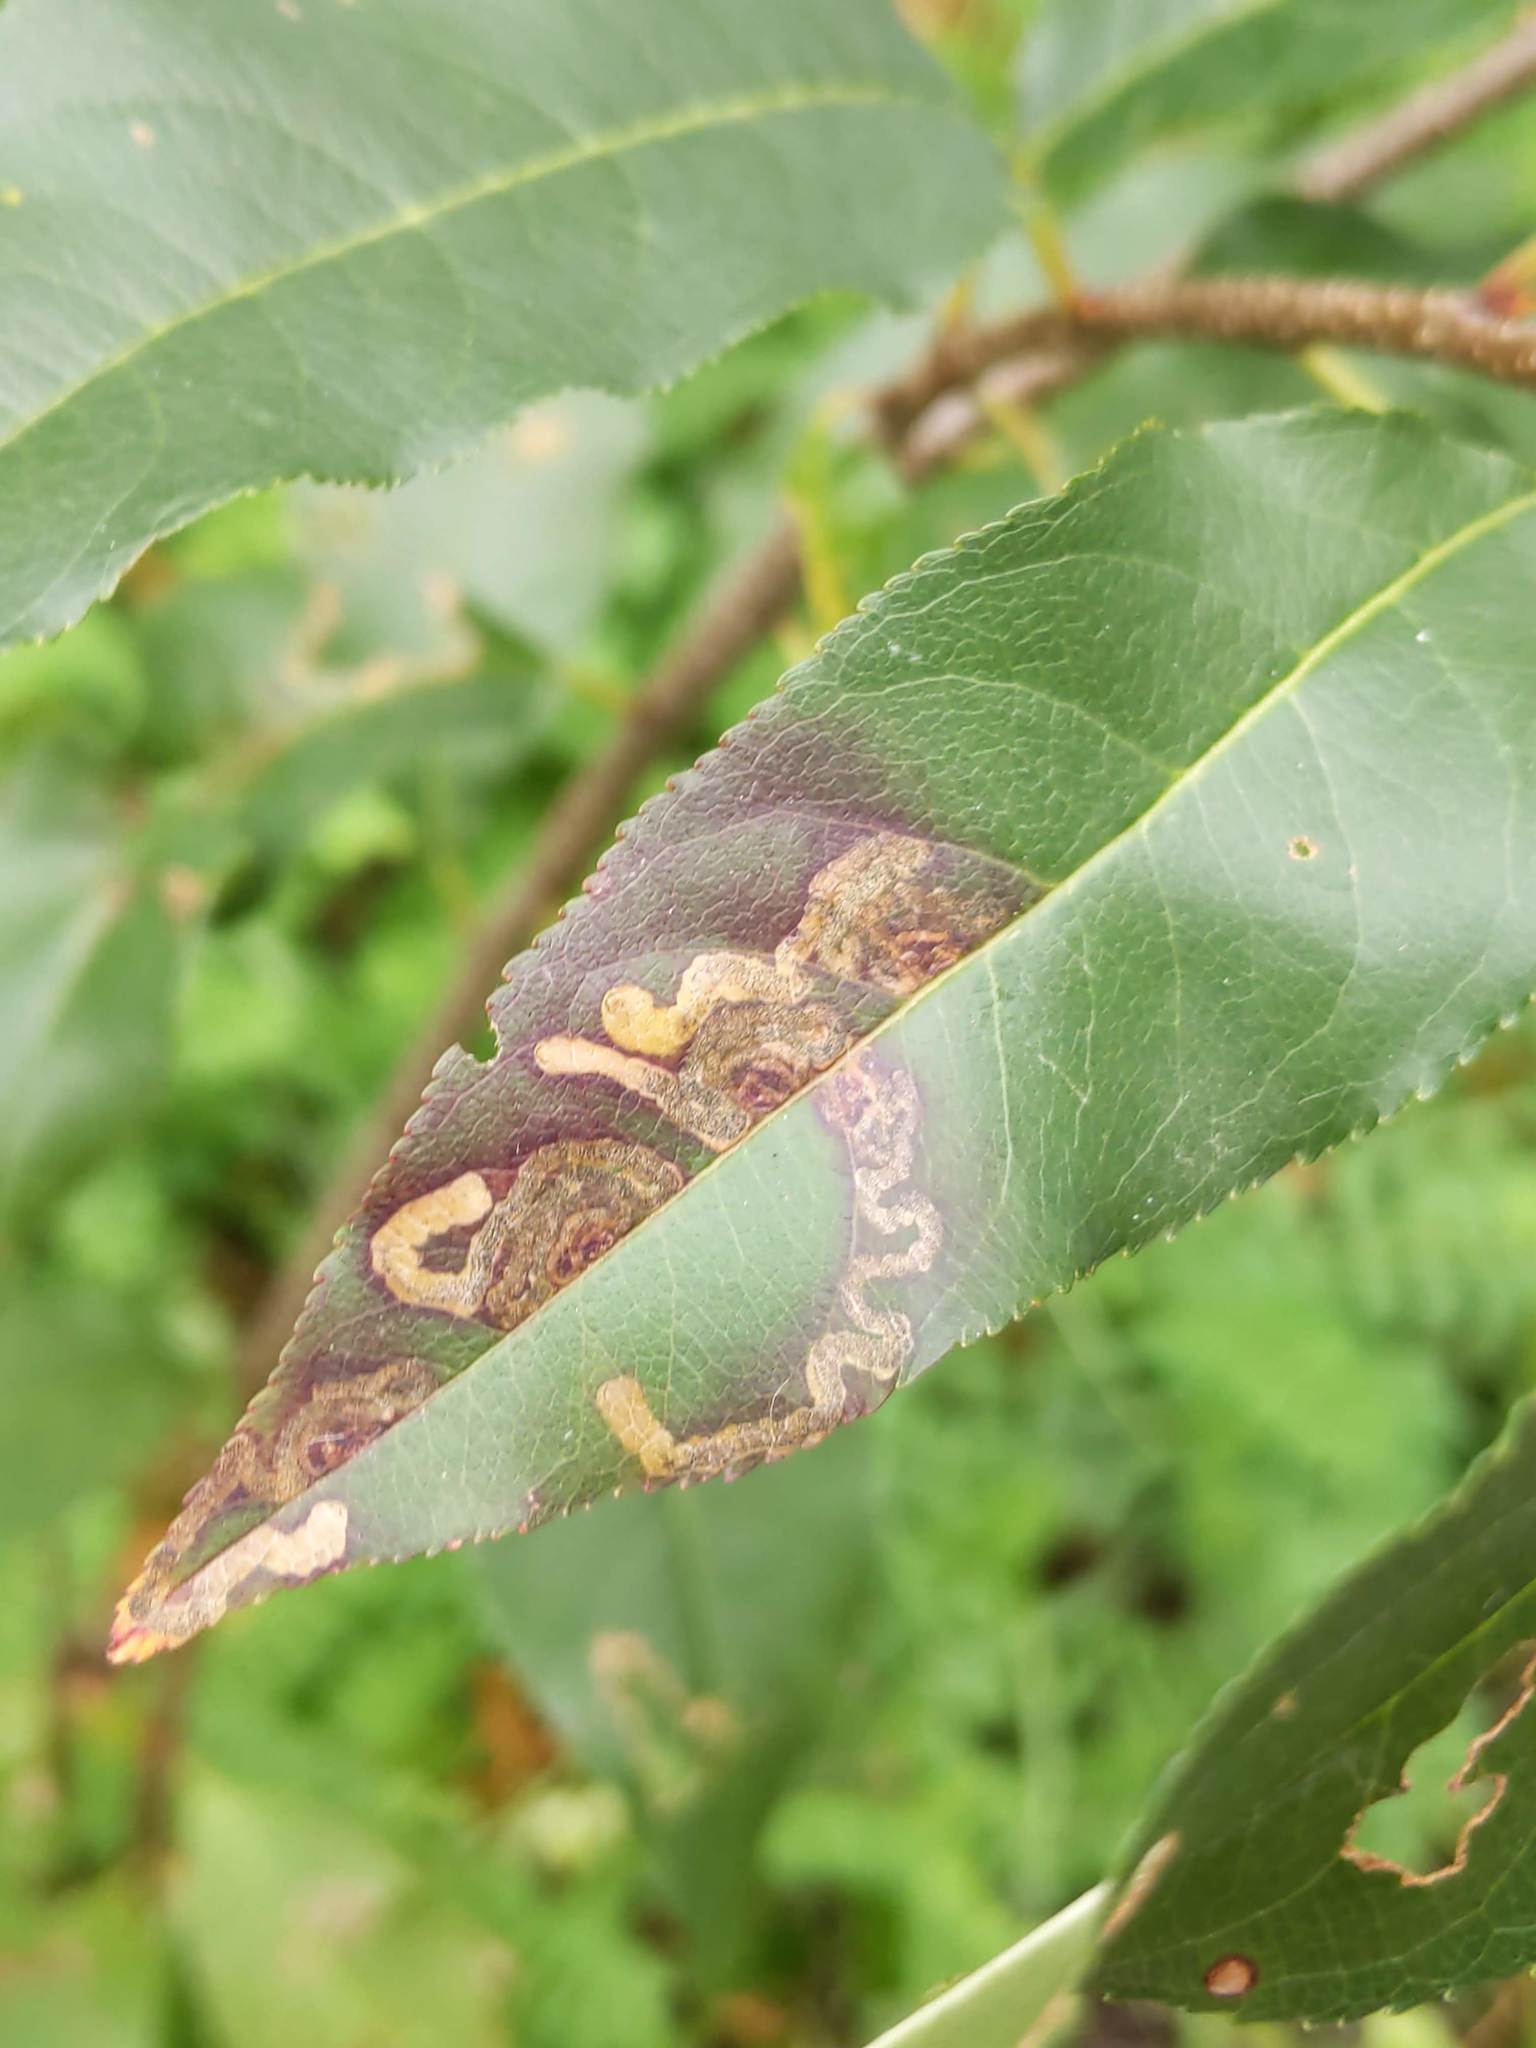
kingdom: Animalia
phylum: Arthropoda
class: Insecta
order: Lepidoptera
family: Nepticulidae
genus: Stigmella
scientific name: Stigmella prunifoliella
